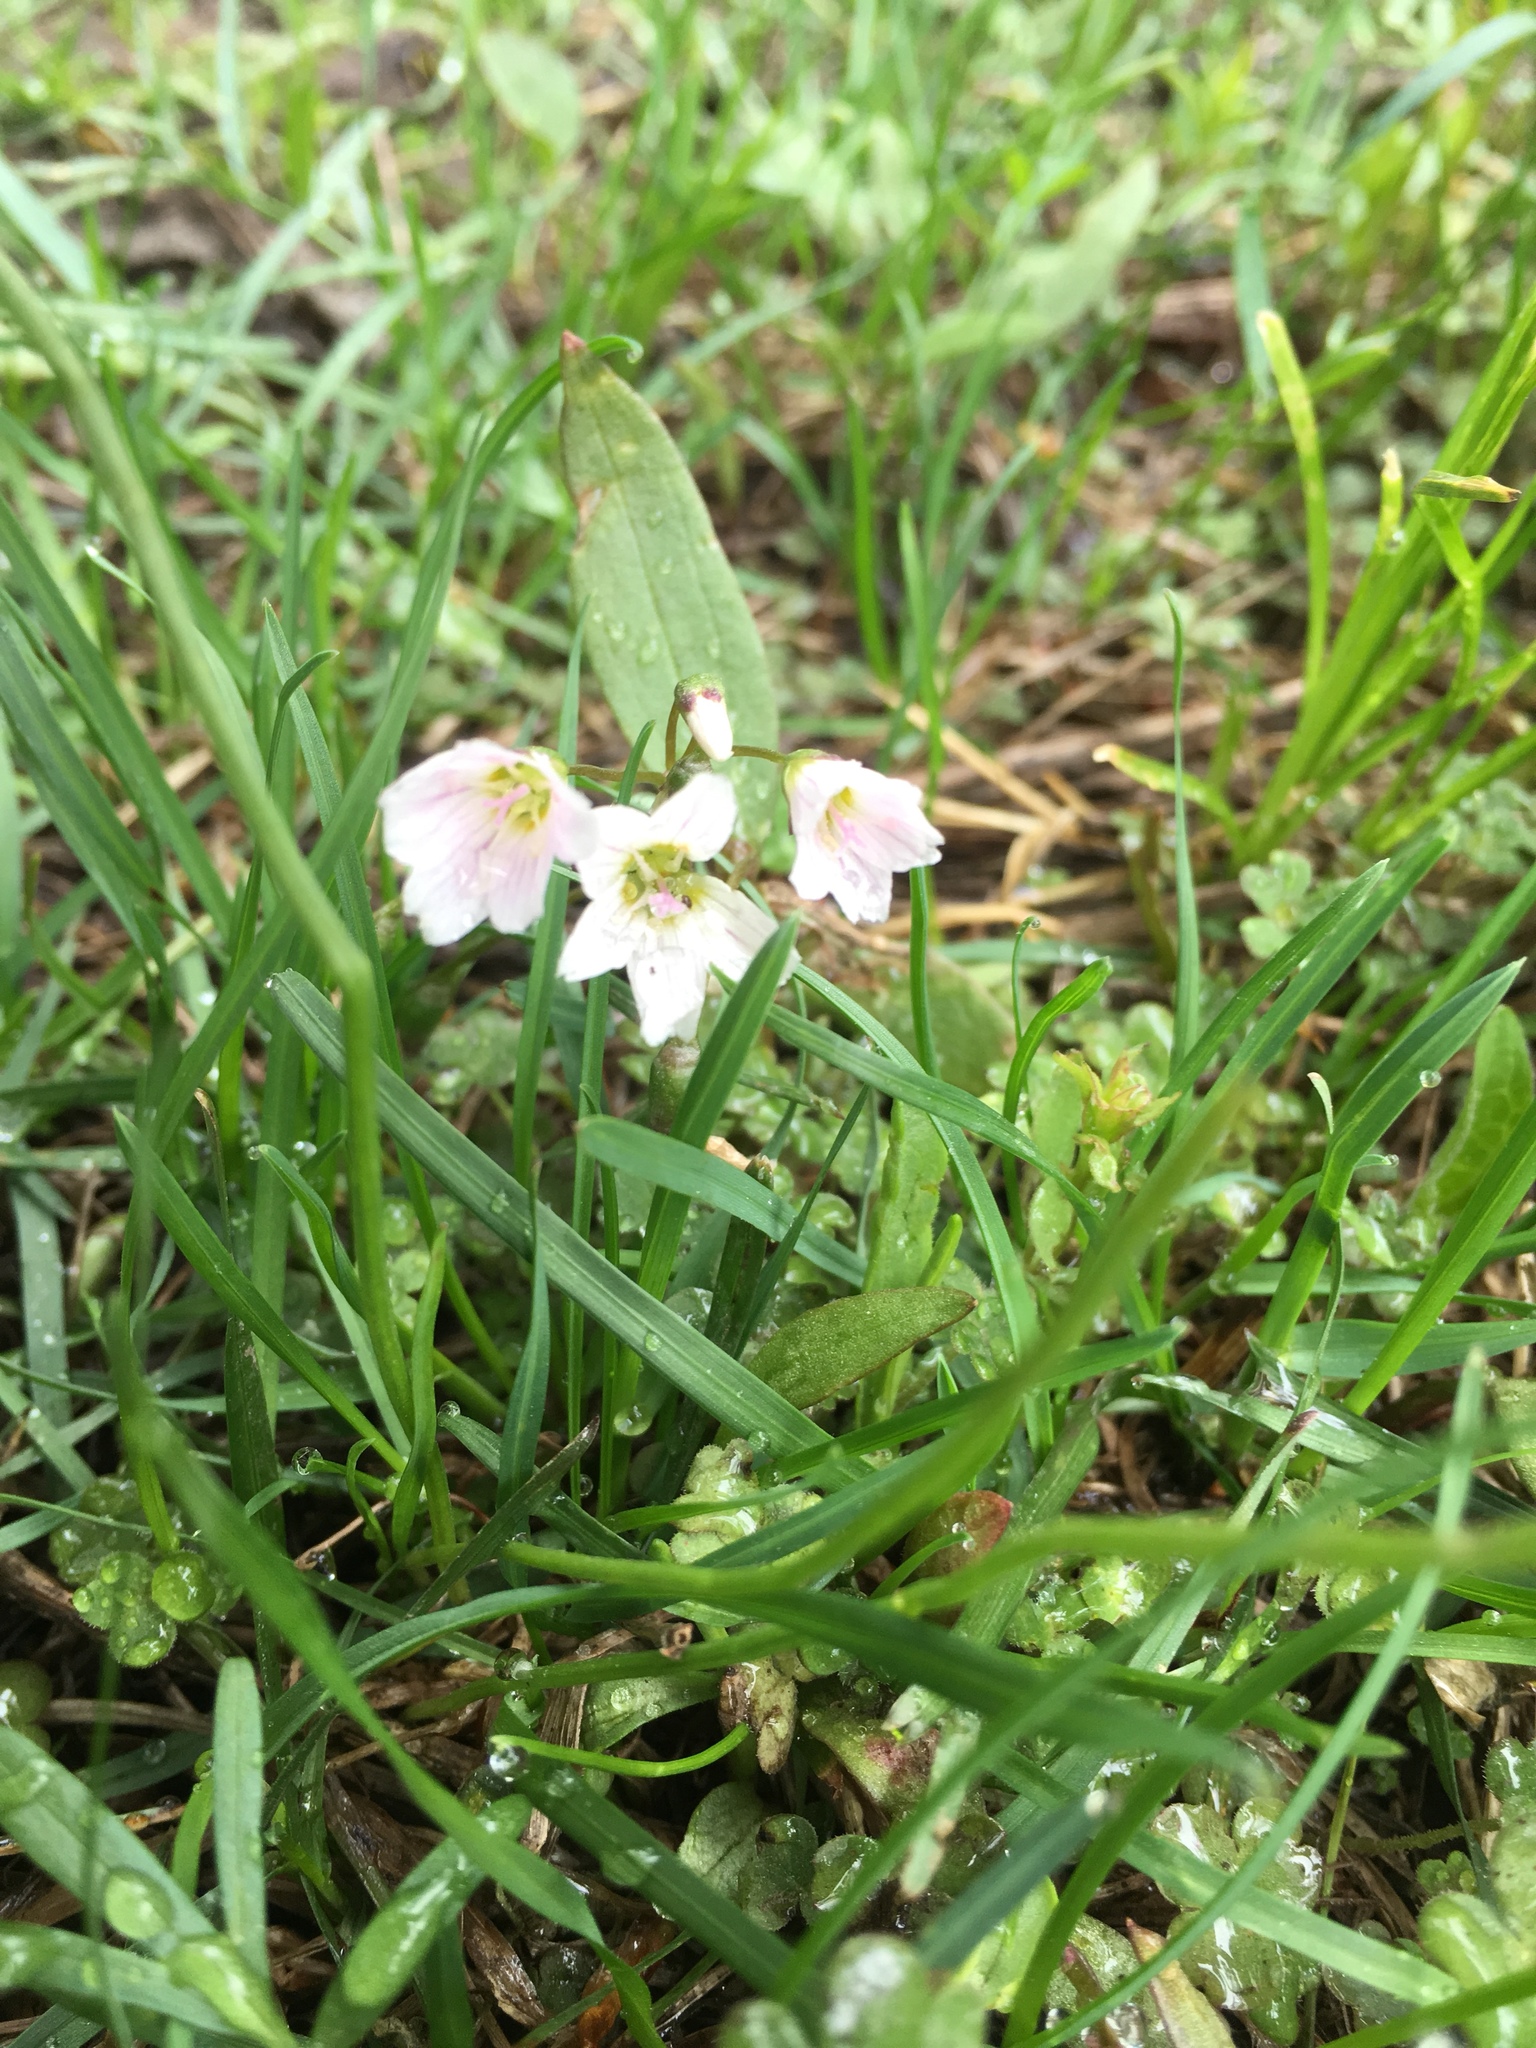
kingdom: Plantae
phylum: Tracheophyta
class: Magnoliopsida
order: Caryophyllales
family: Montiaceae
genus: Claytonia
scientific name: Claytonia lanceolata
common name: Western spring-beauty
